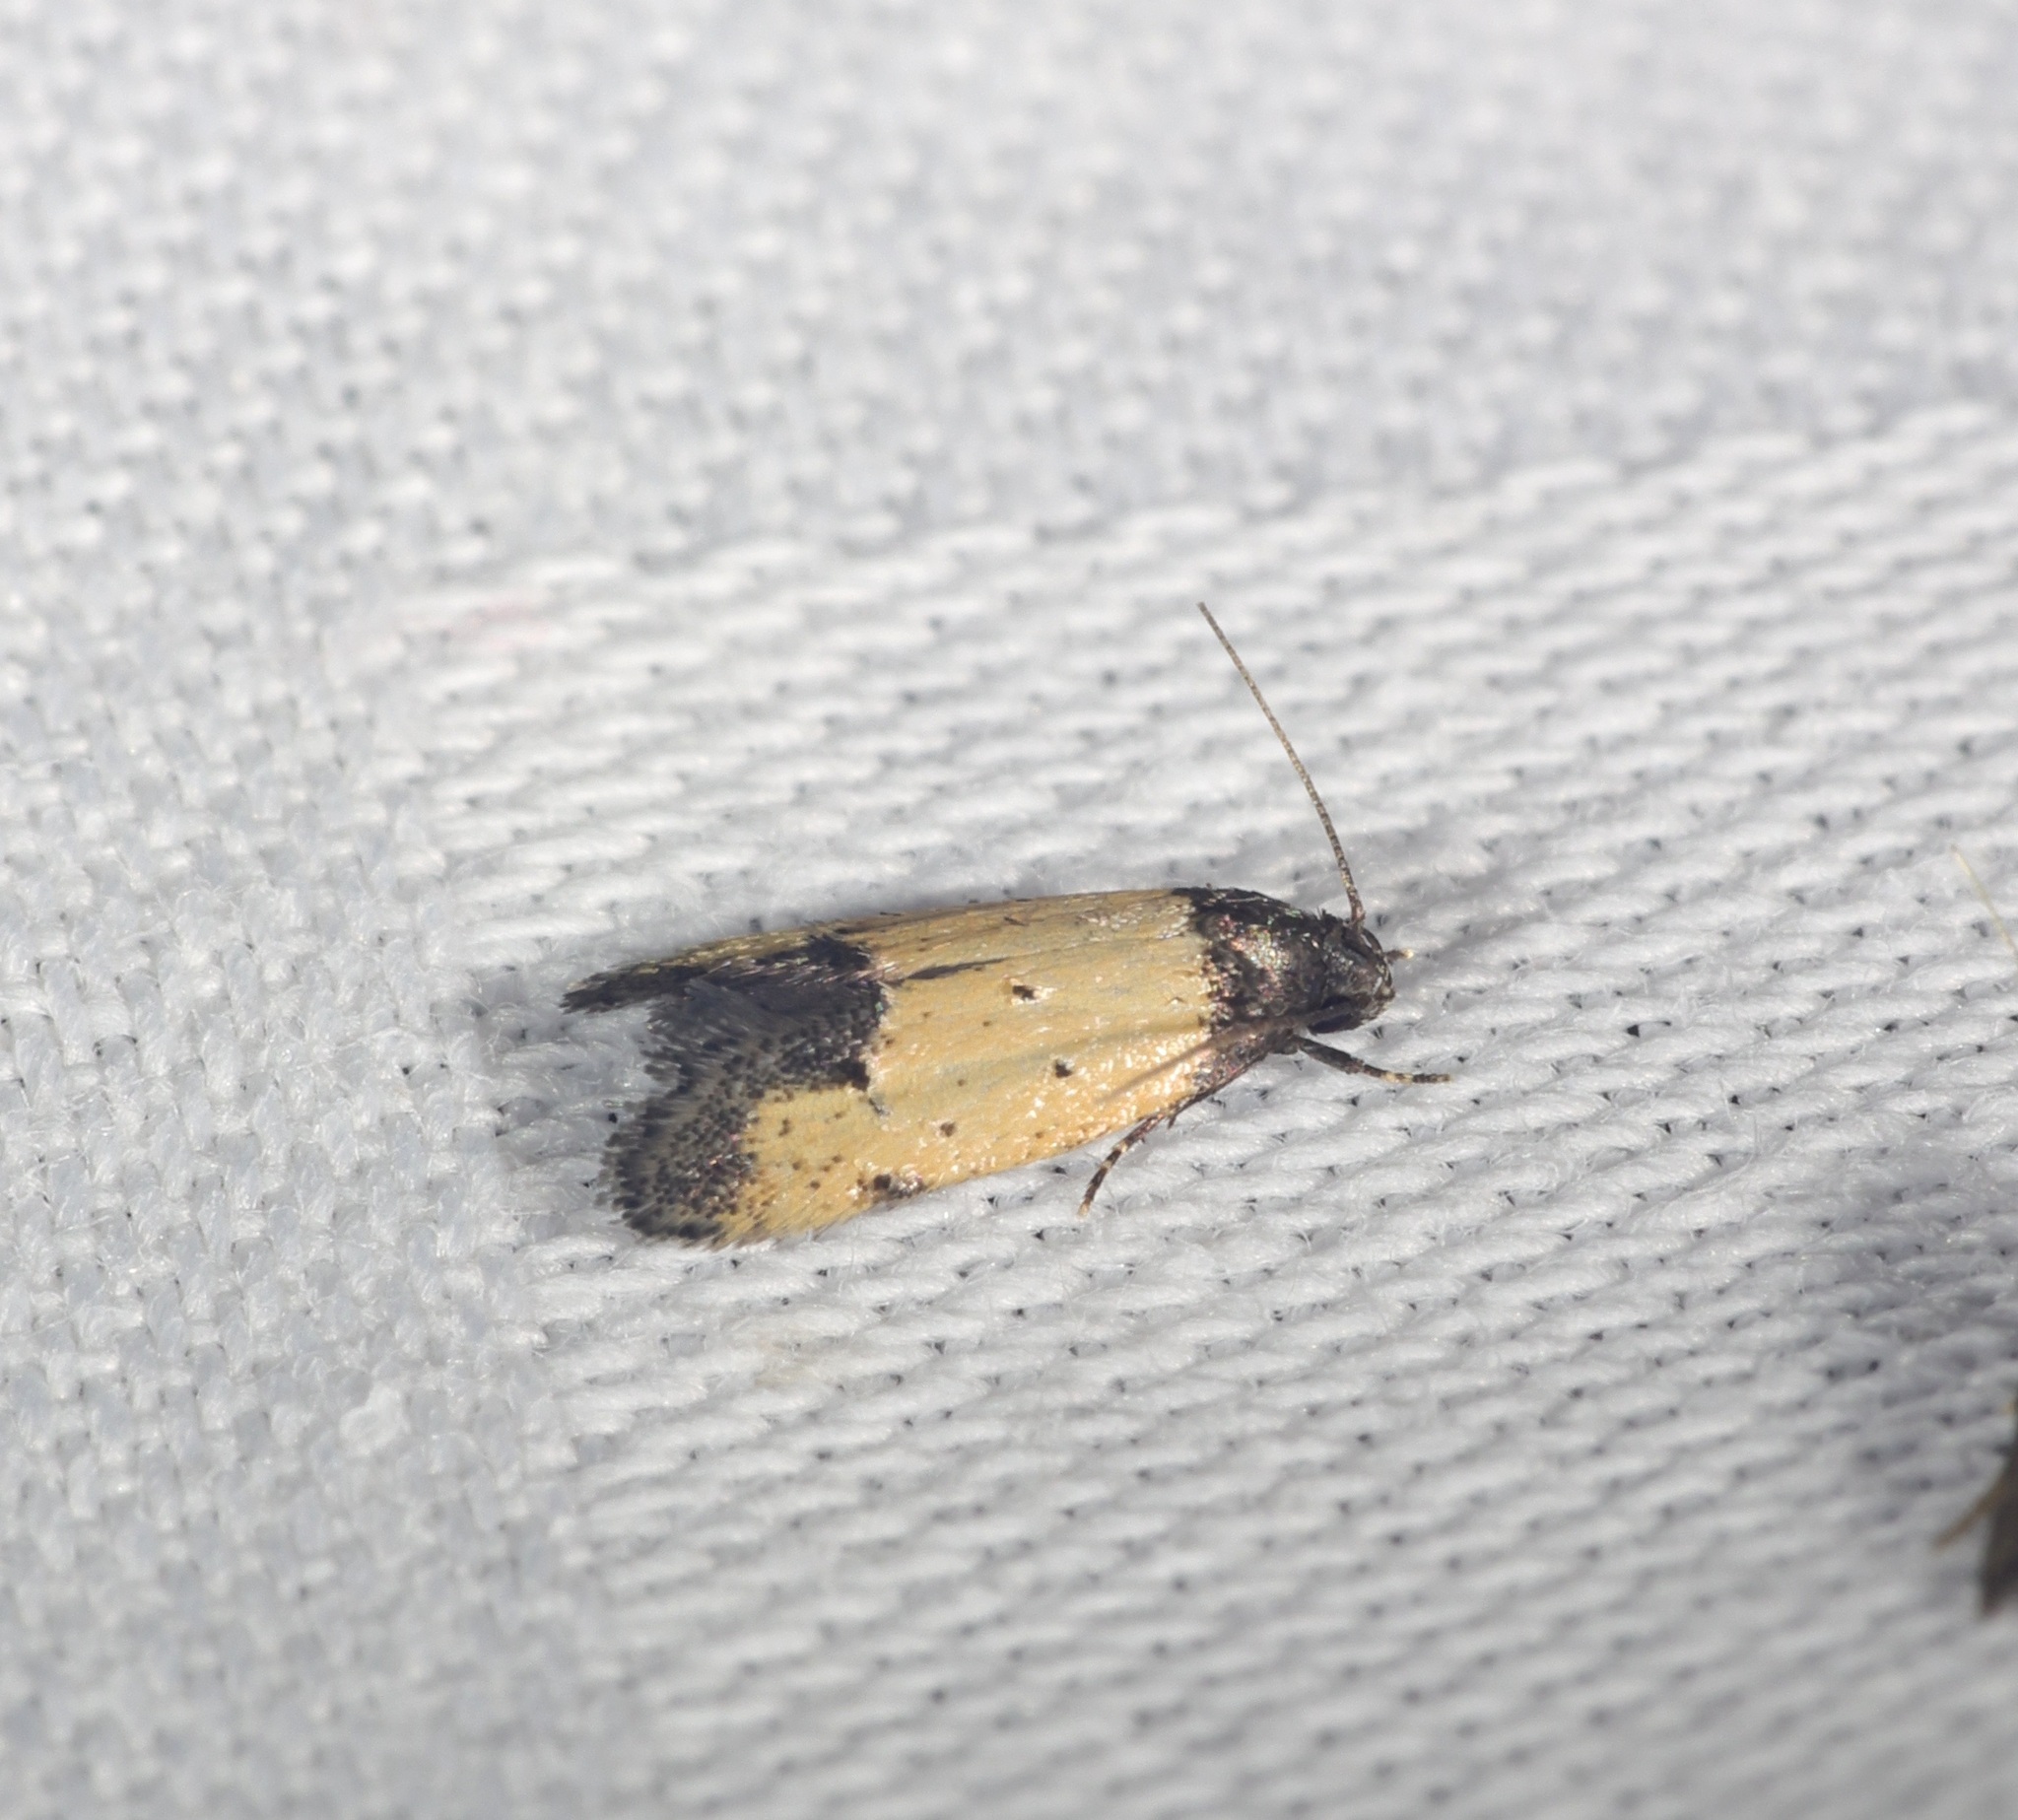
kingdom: Animalia
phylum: Arthropoda
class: Insecta
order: Lepidoptera
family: Oecophoridae
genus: Tyrolimnas
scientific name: Tyrolimnas anthraconesa
